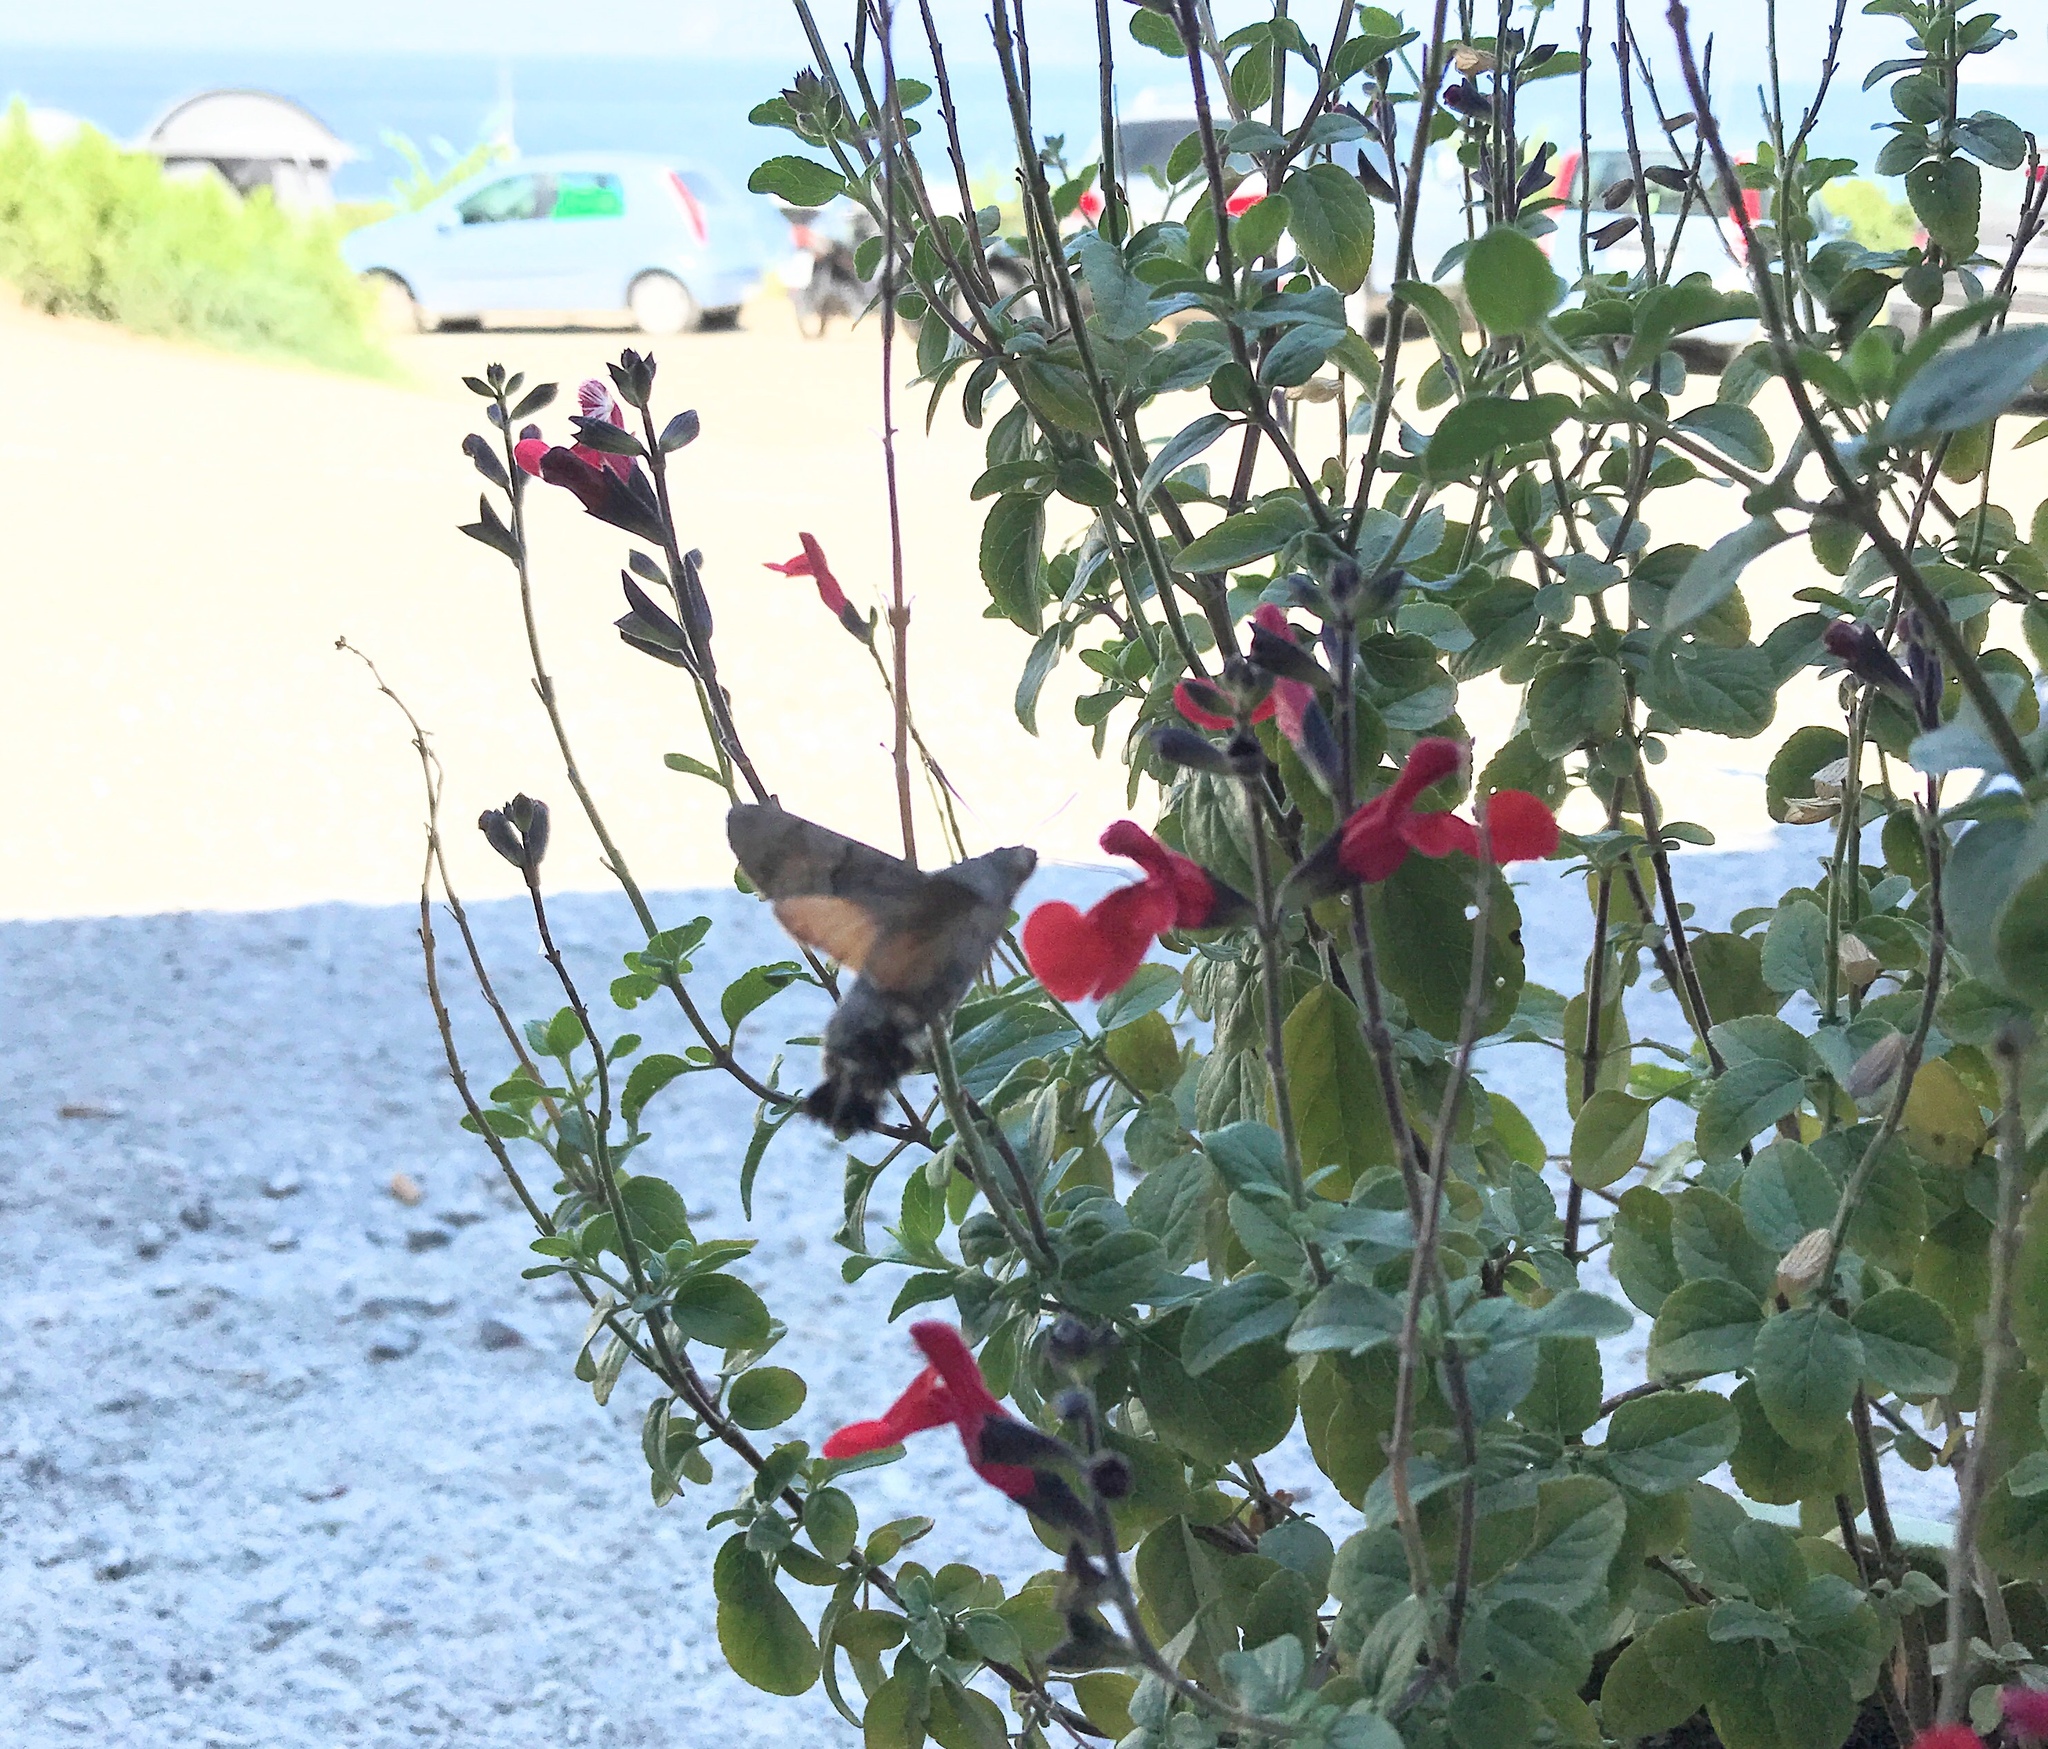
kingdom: Animalia
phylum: Arthropoda
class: Insecta
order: Lepidoptera
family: Sphingidae
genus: Macroglossum
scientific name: Macroglossum stellatarum
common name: Humming-bird hawk-moth
